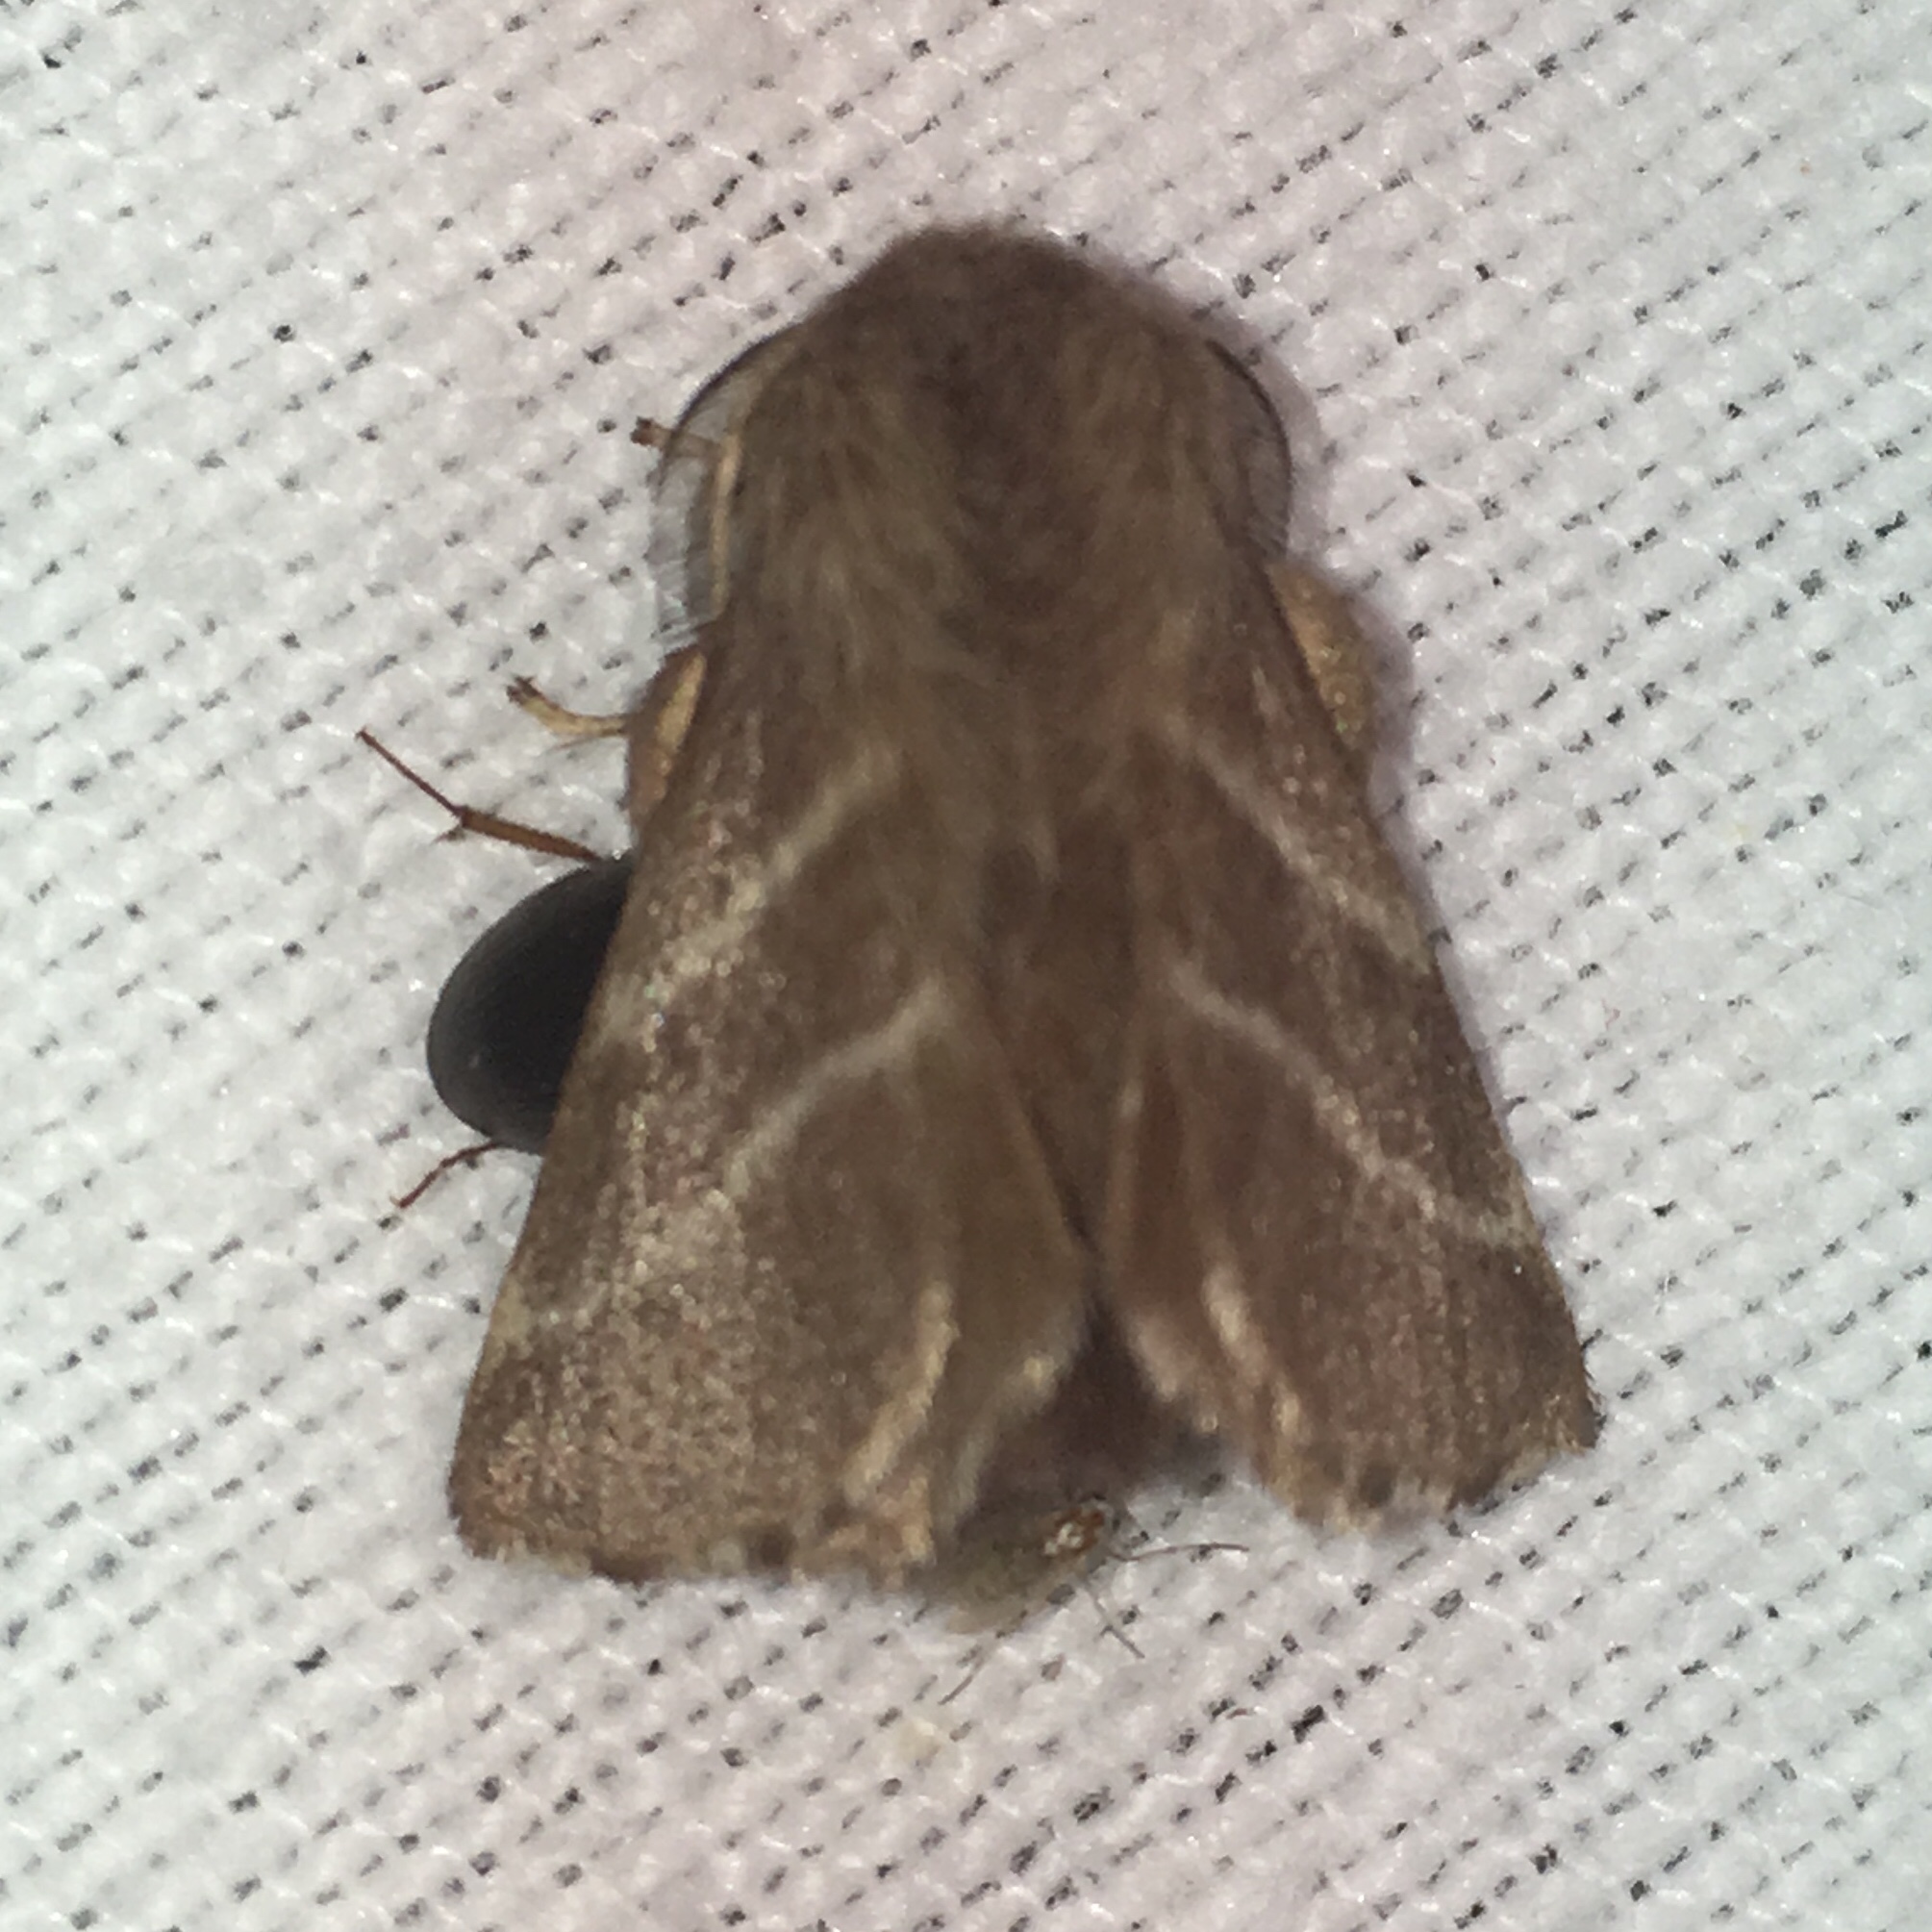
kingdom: Animalia
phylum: Arthropoda
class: Insecta
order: Lepidoptera
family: Lasiocampidae
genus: Malacosoma
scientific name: Malacosoma americana
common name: Eastern tent caterpillar moth
